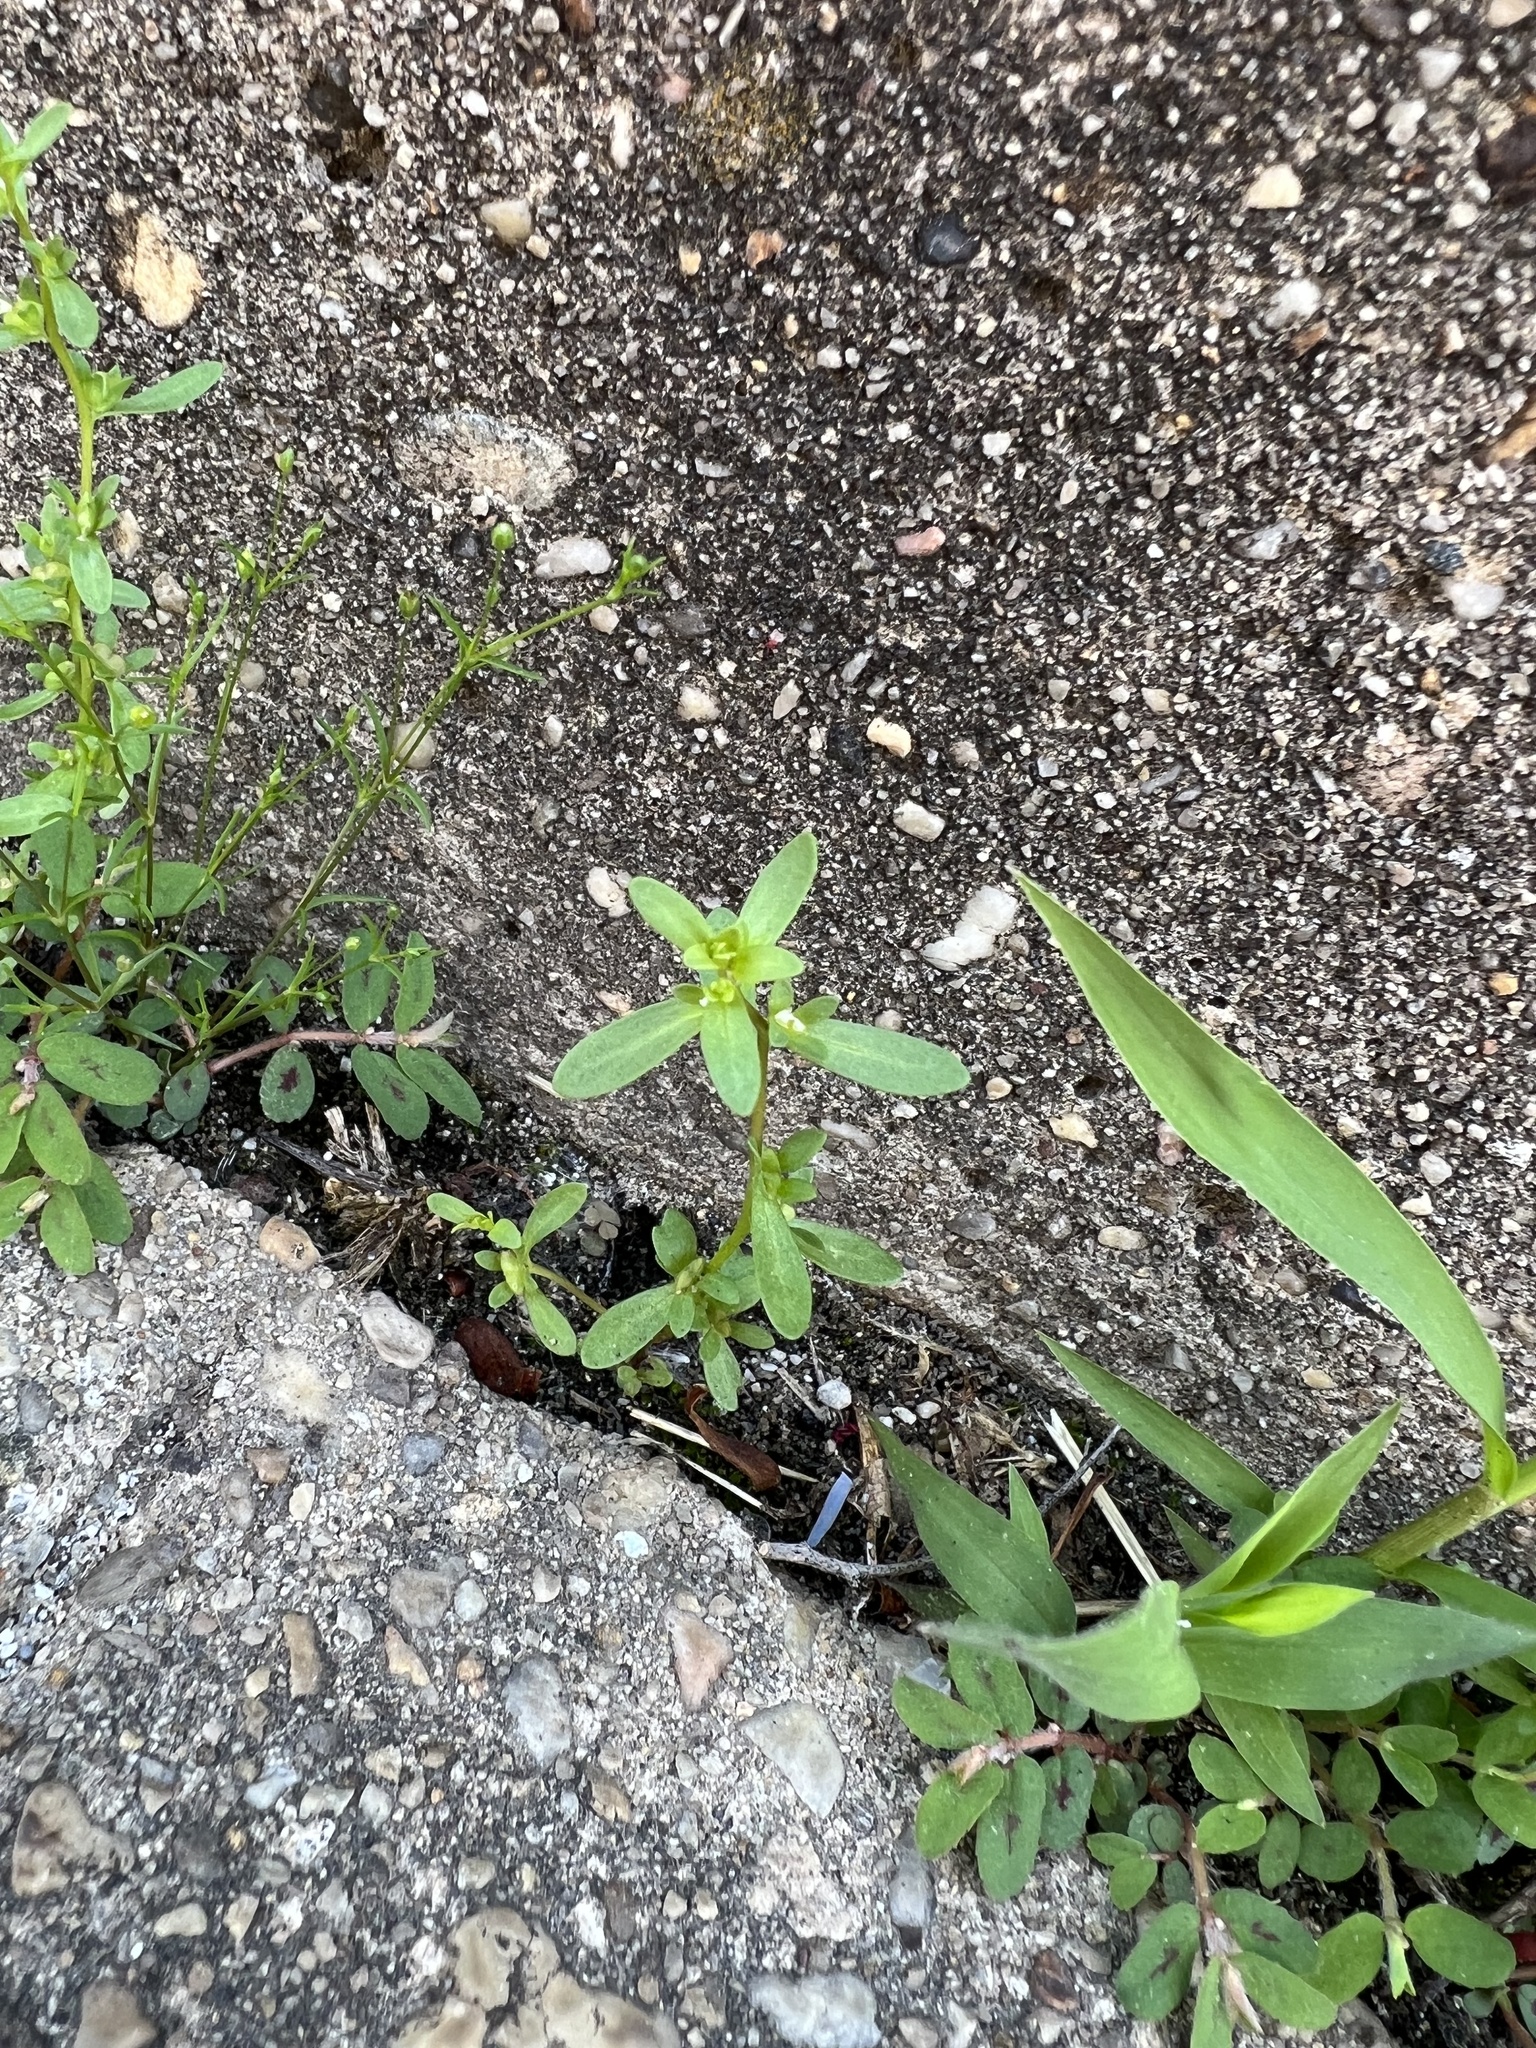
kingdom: Plantae
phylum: Tracheophyta
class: Magnoliopsida
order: Lamiales
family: Plantaginaceae
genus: Veronica
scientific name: Veronica peregrina
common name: Neckweed
